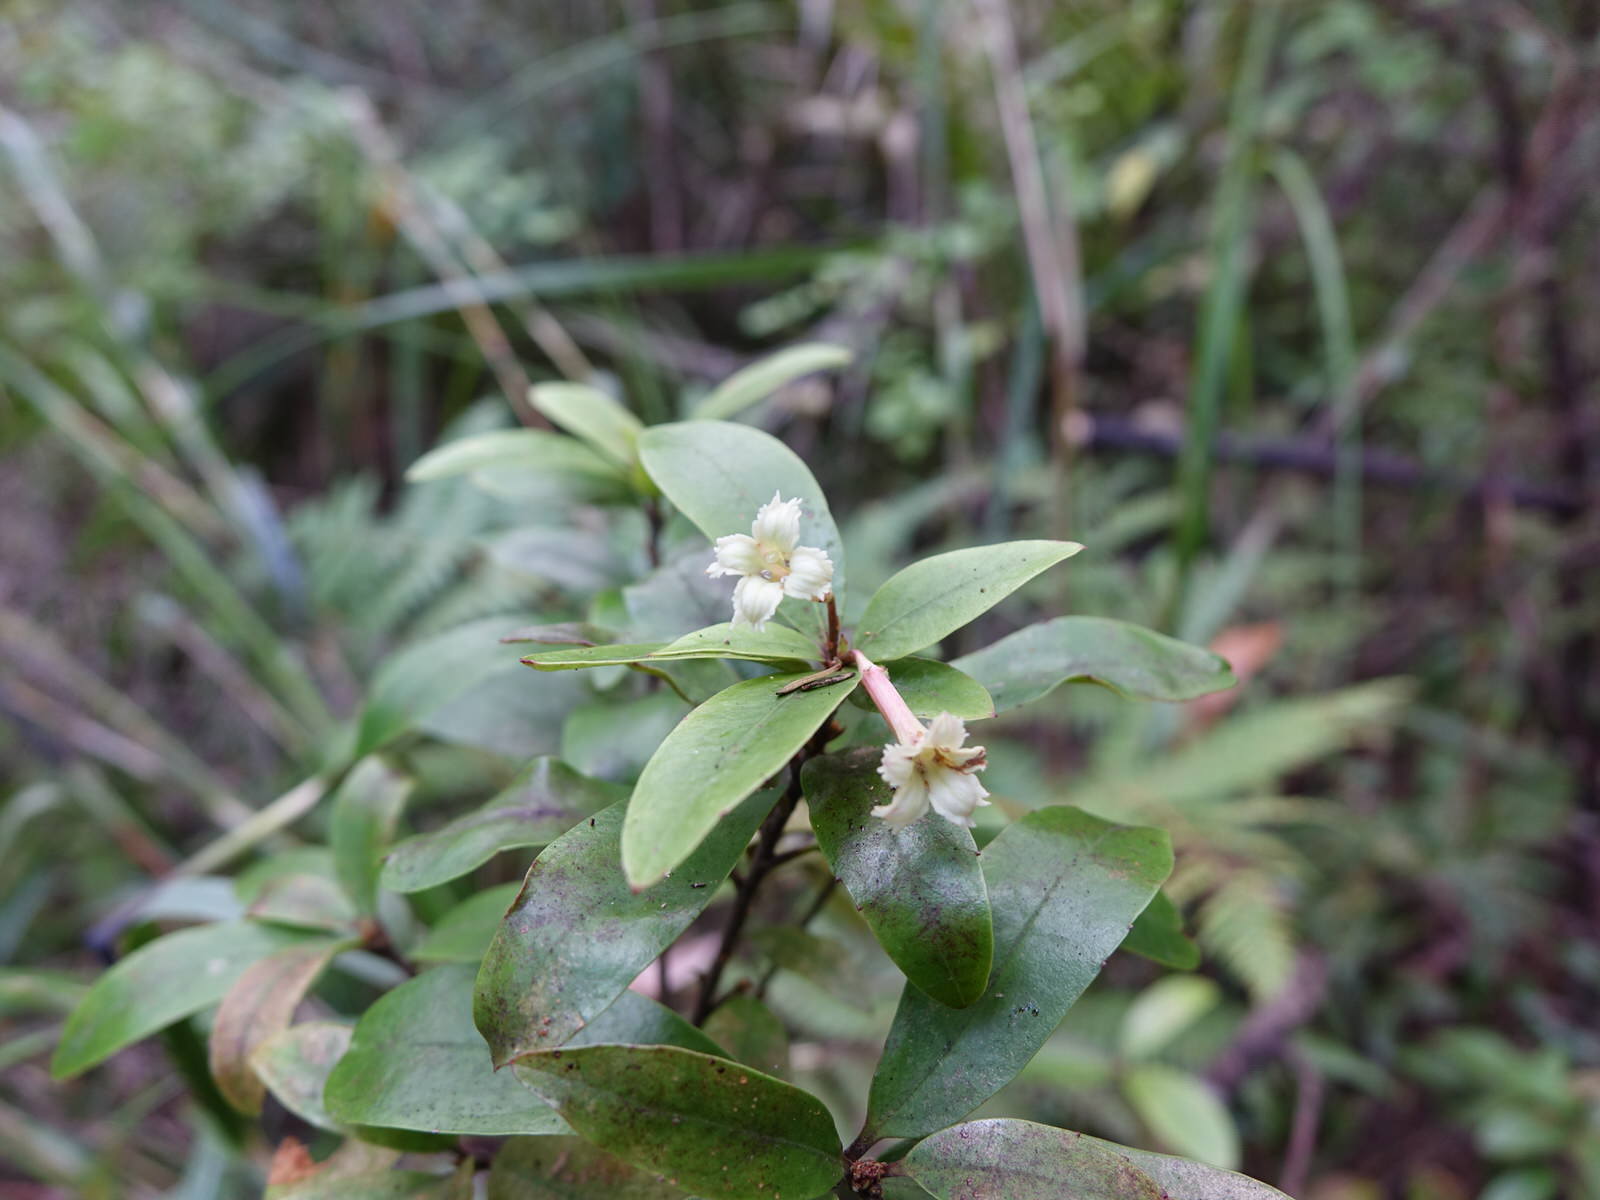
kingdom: Plantae
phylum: Tracheophyta
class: Magnoliopsida
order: Asterales
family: Alseuosmiaceae
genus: Alseuosmia
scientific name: Alseuosmia banksii
